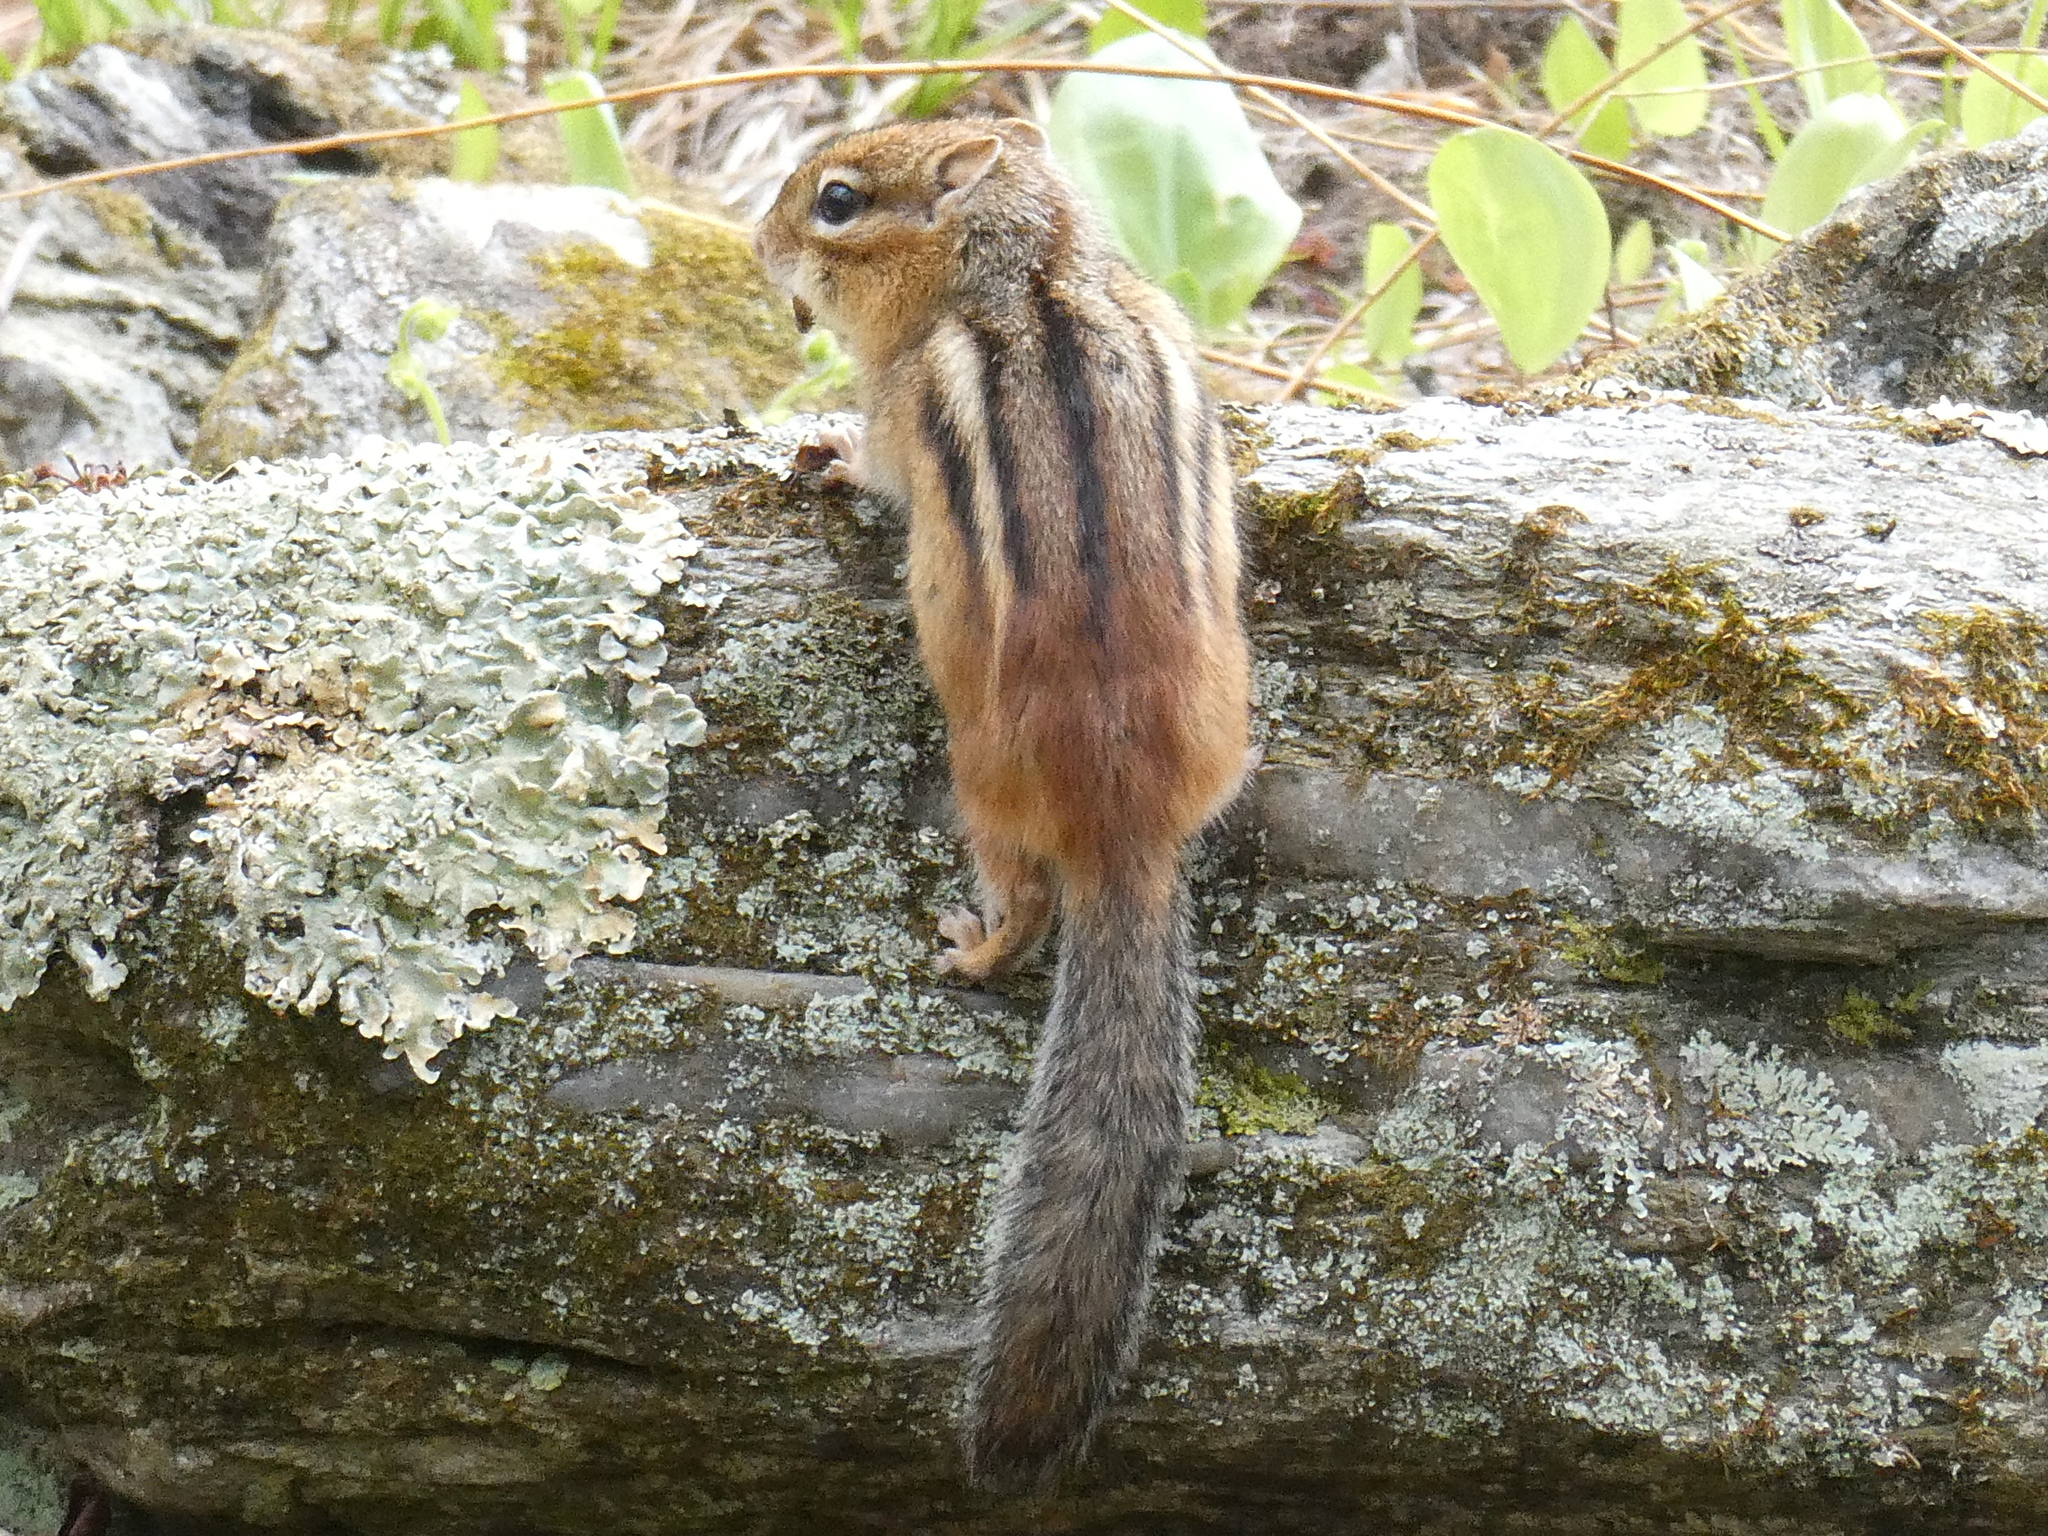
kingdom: Animalia
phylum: Chordata
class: Mammalia
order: Rodentia
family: Sciuridae
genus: Tamias
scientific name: Tamias striatus
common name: Eastern chipmunk
